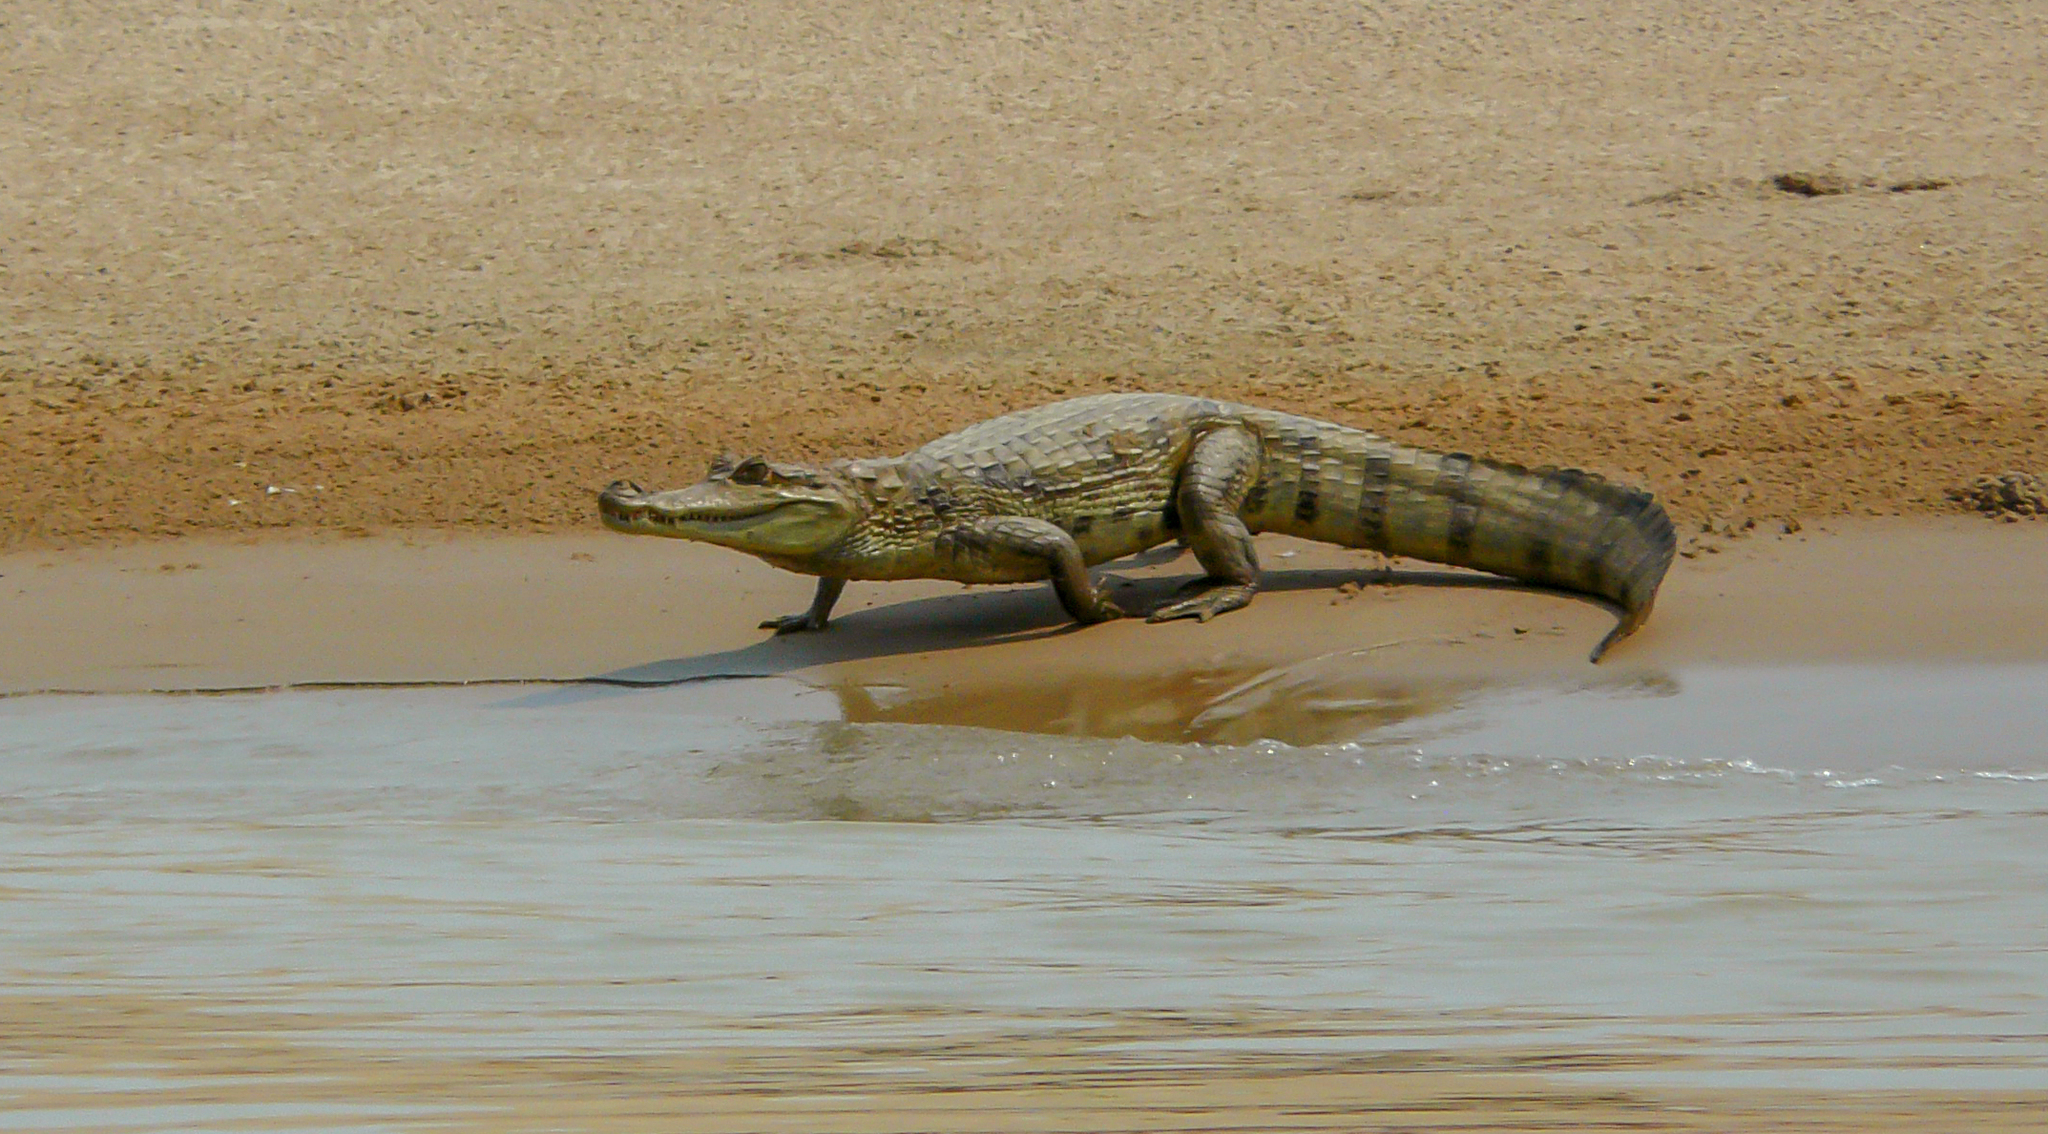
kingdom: Animalia
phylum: Chordata
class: Crocodylia
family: Alligatoridae
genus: Caiman
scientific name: Caiman crocodilus
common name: Common caiman
